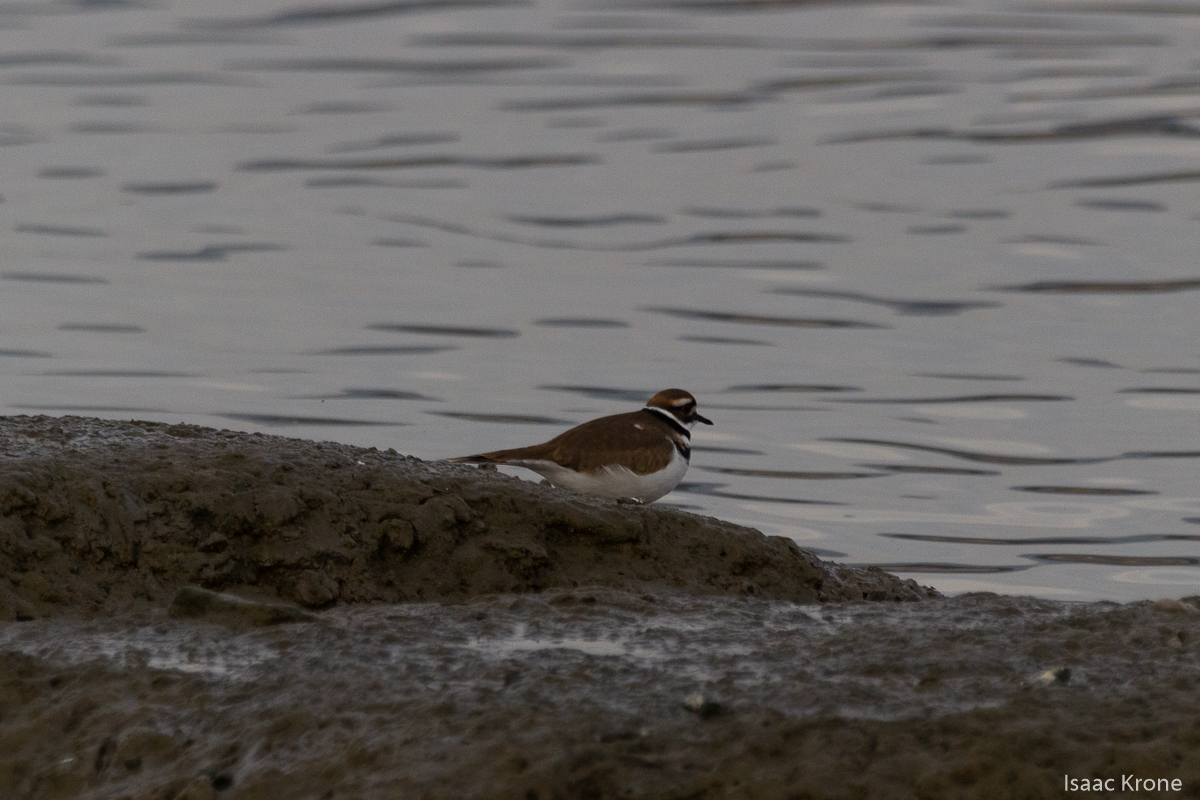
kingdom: Animalia
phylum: Chordata
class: Aves
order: Charadriiformes
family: Charadriidae
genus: Charadrius
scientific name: Charadrius vociferus
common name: Killdeer
